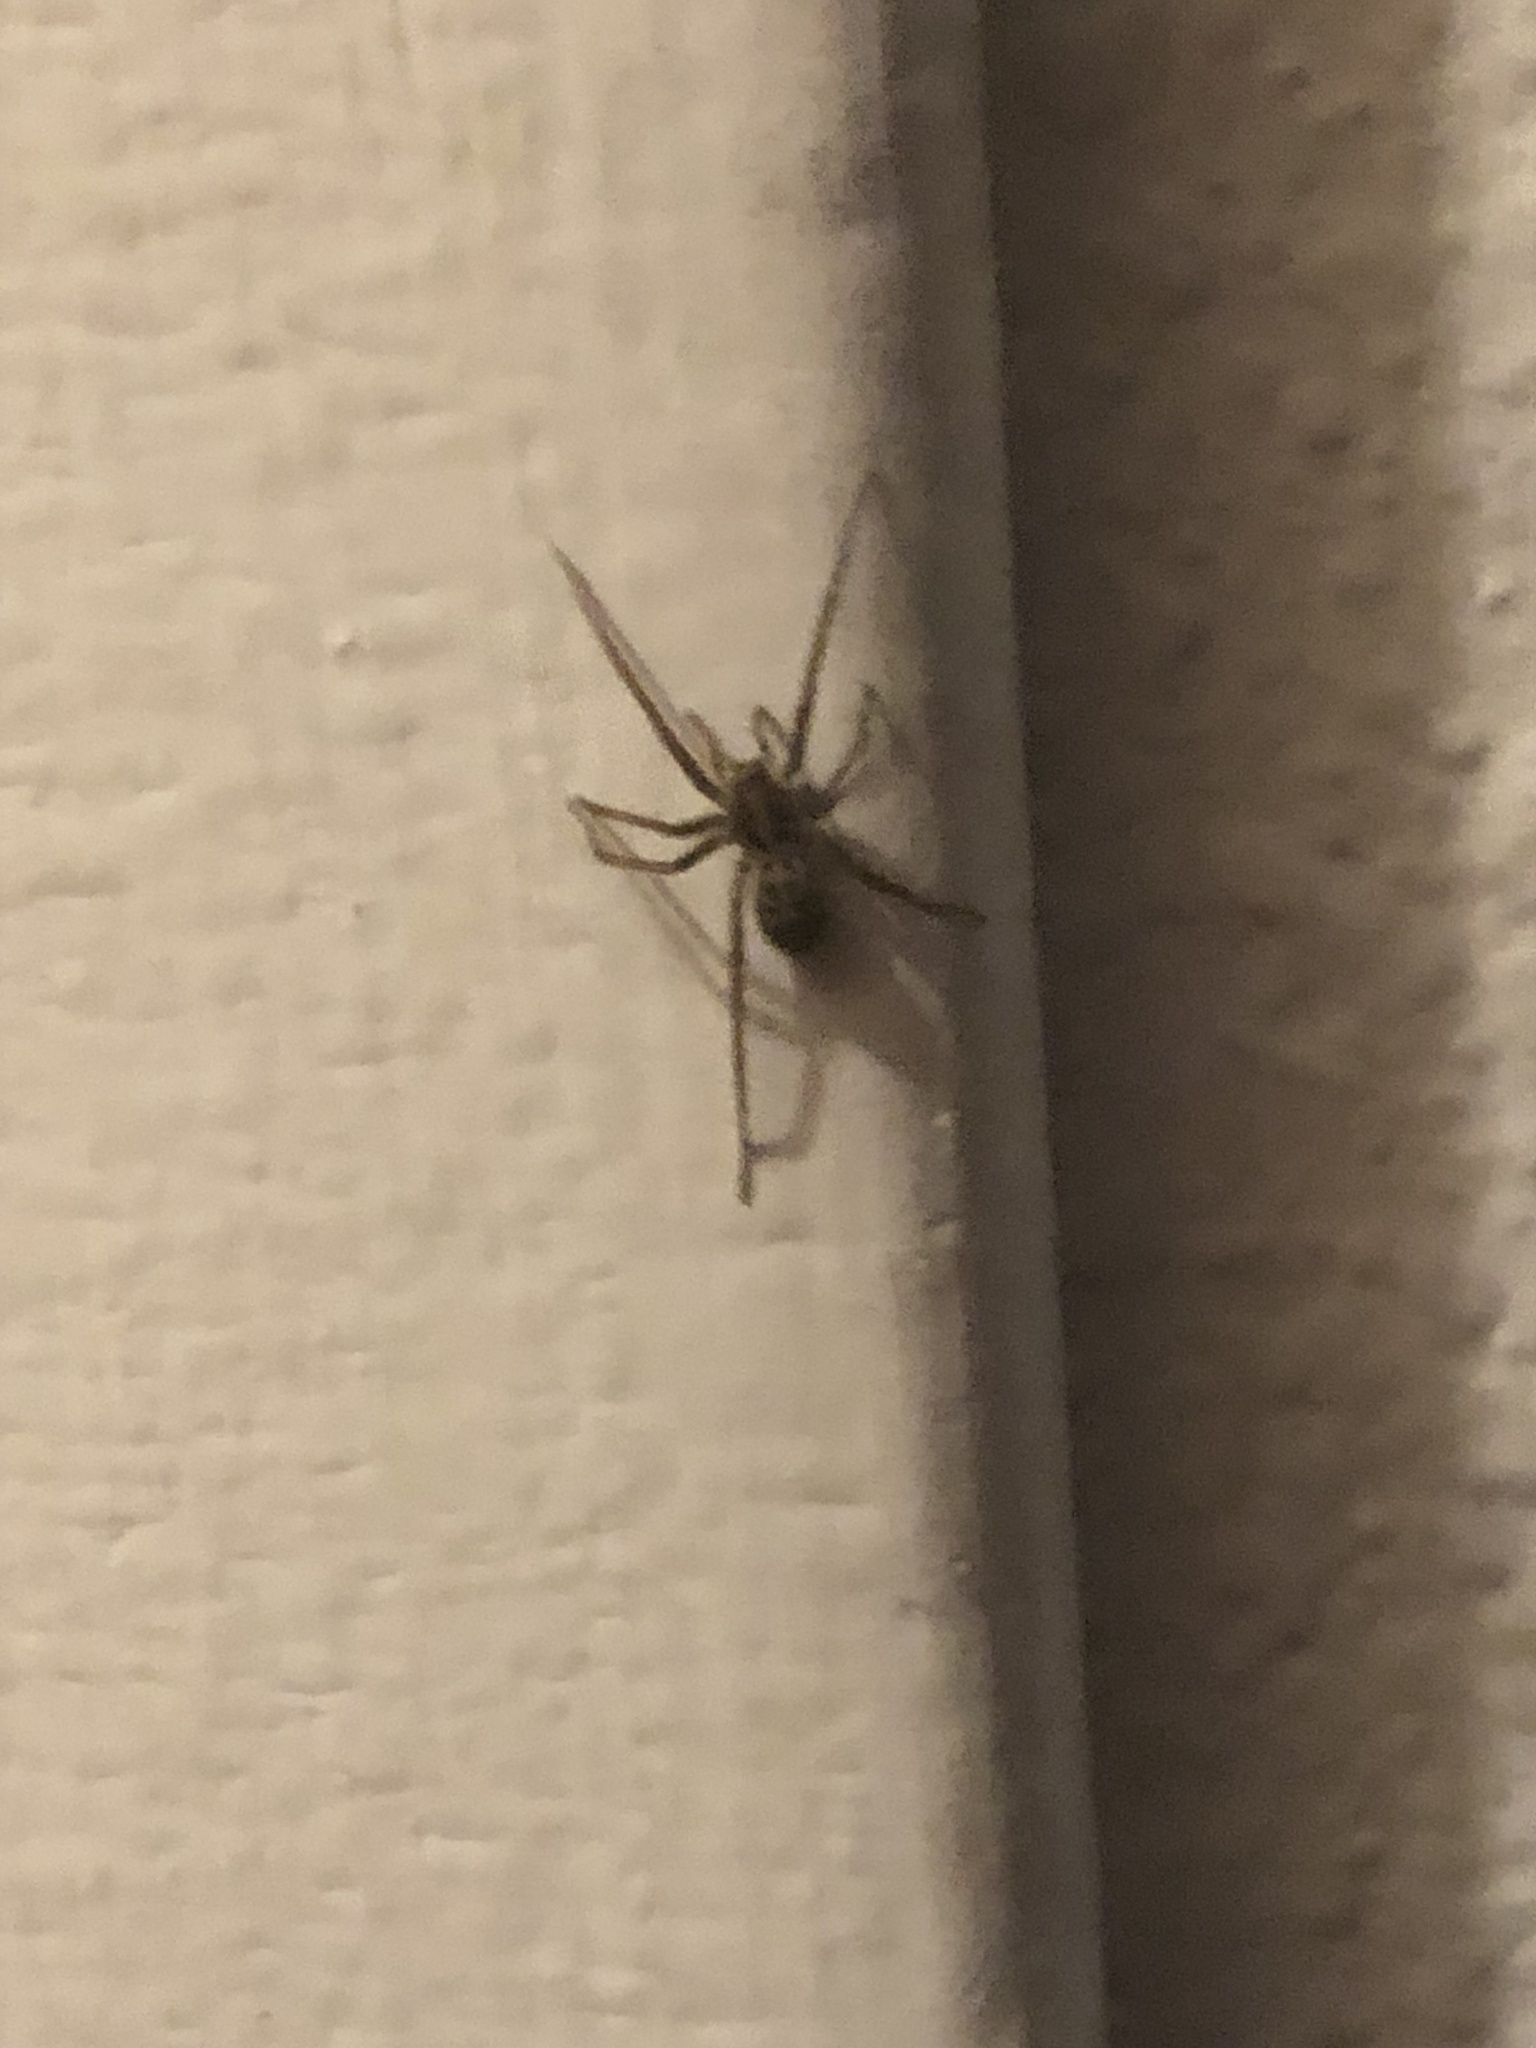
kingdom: Animalia
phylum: Arthropoda
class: Arachnida
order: Araneae
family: Agelenidae
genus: Eratigena
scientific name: Eratigena duellica
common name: Giant house spider
